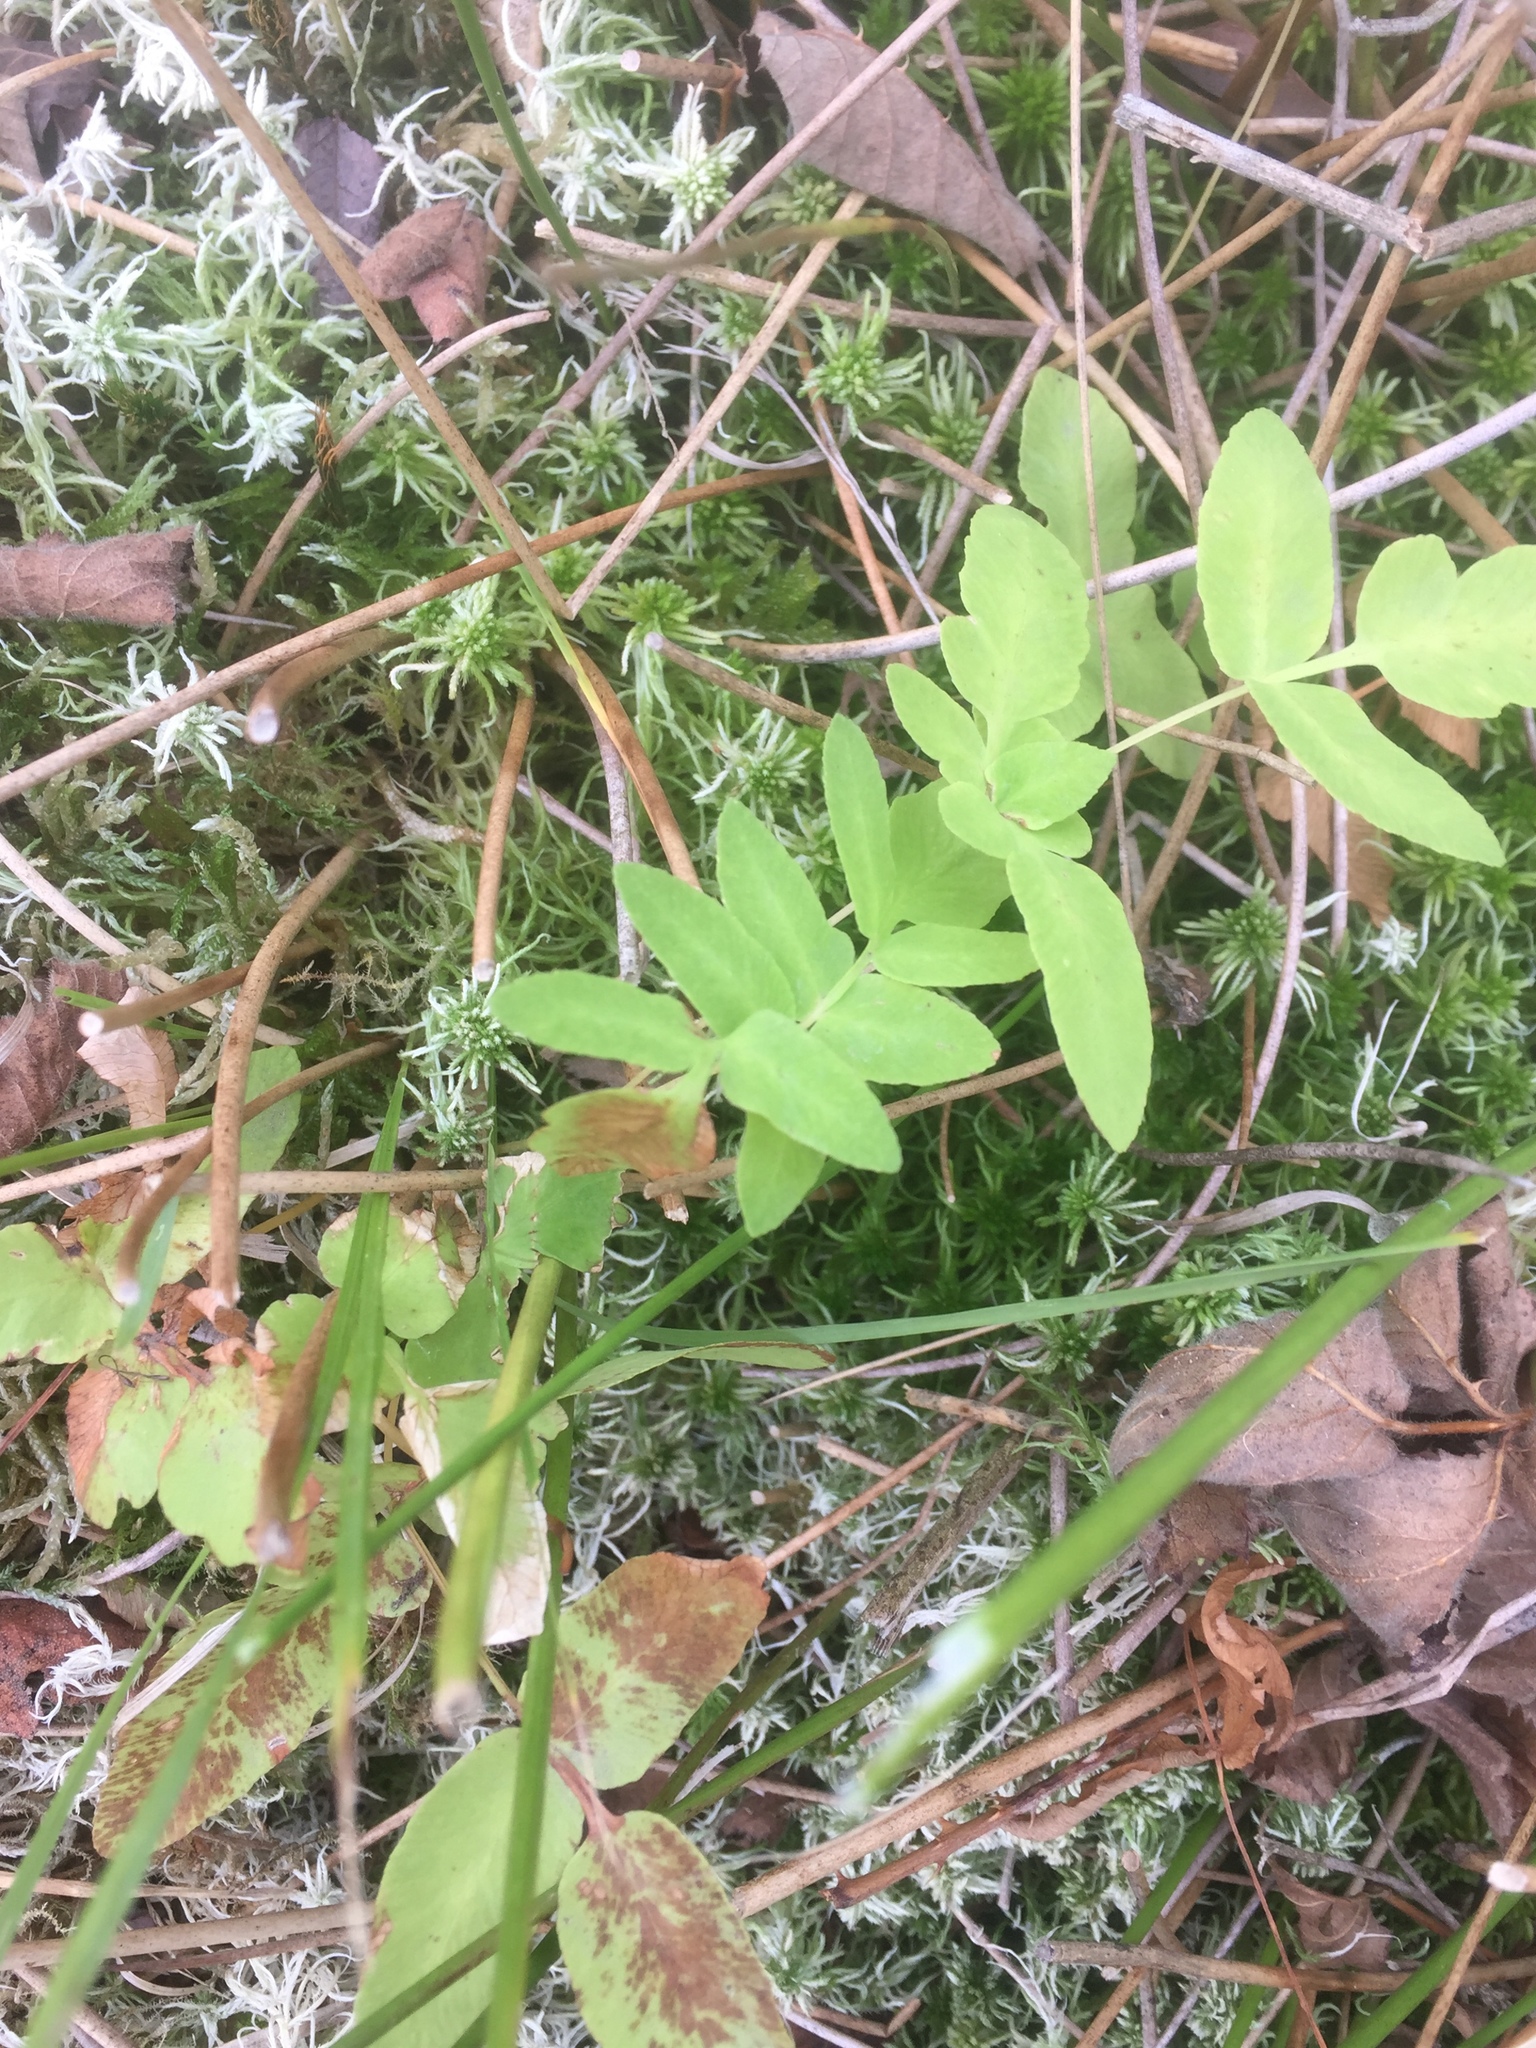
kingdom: Plantae
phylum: Tracheophyta
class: Polypodiopsida
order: Osmundales
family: Osmundaceae
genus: Osmunda
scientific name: Osmunda regalis
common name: Royal fern
